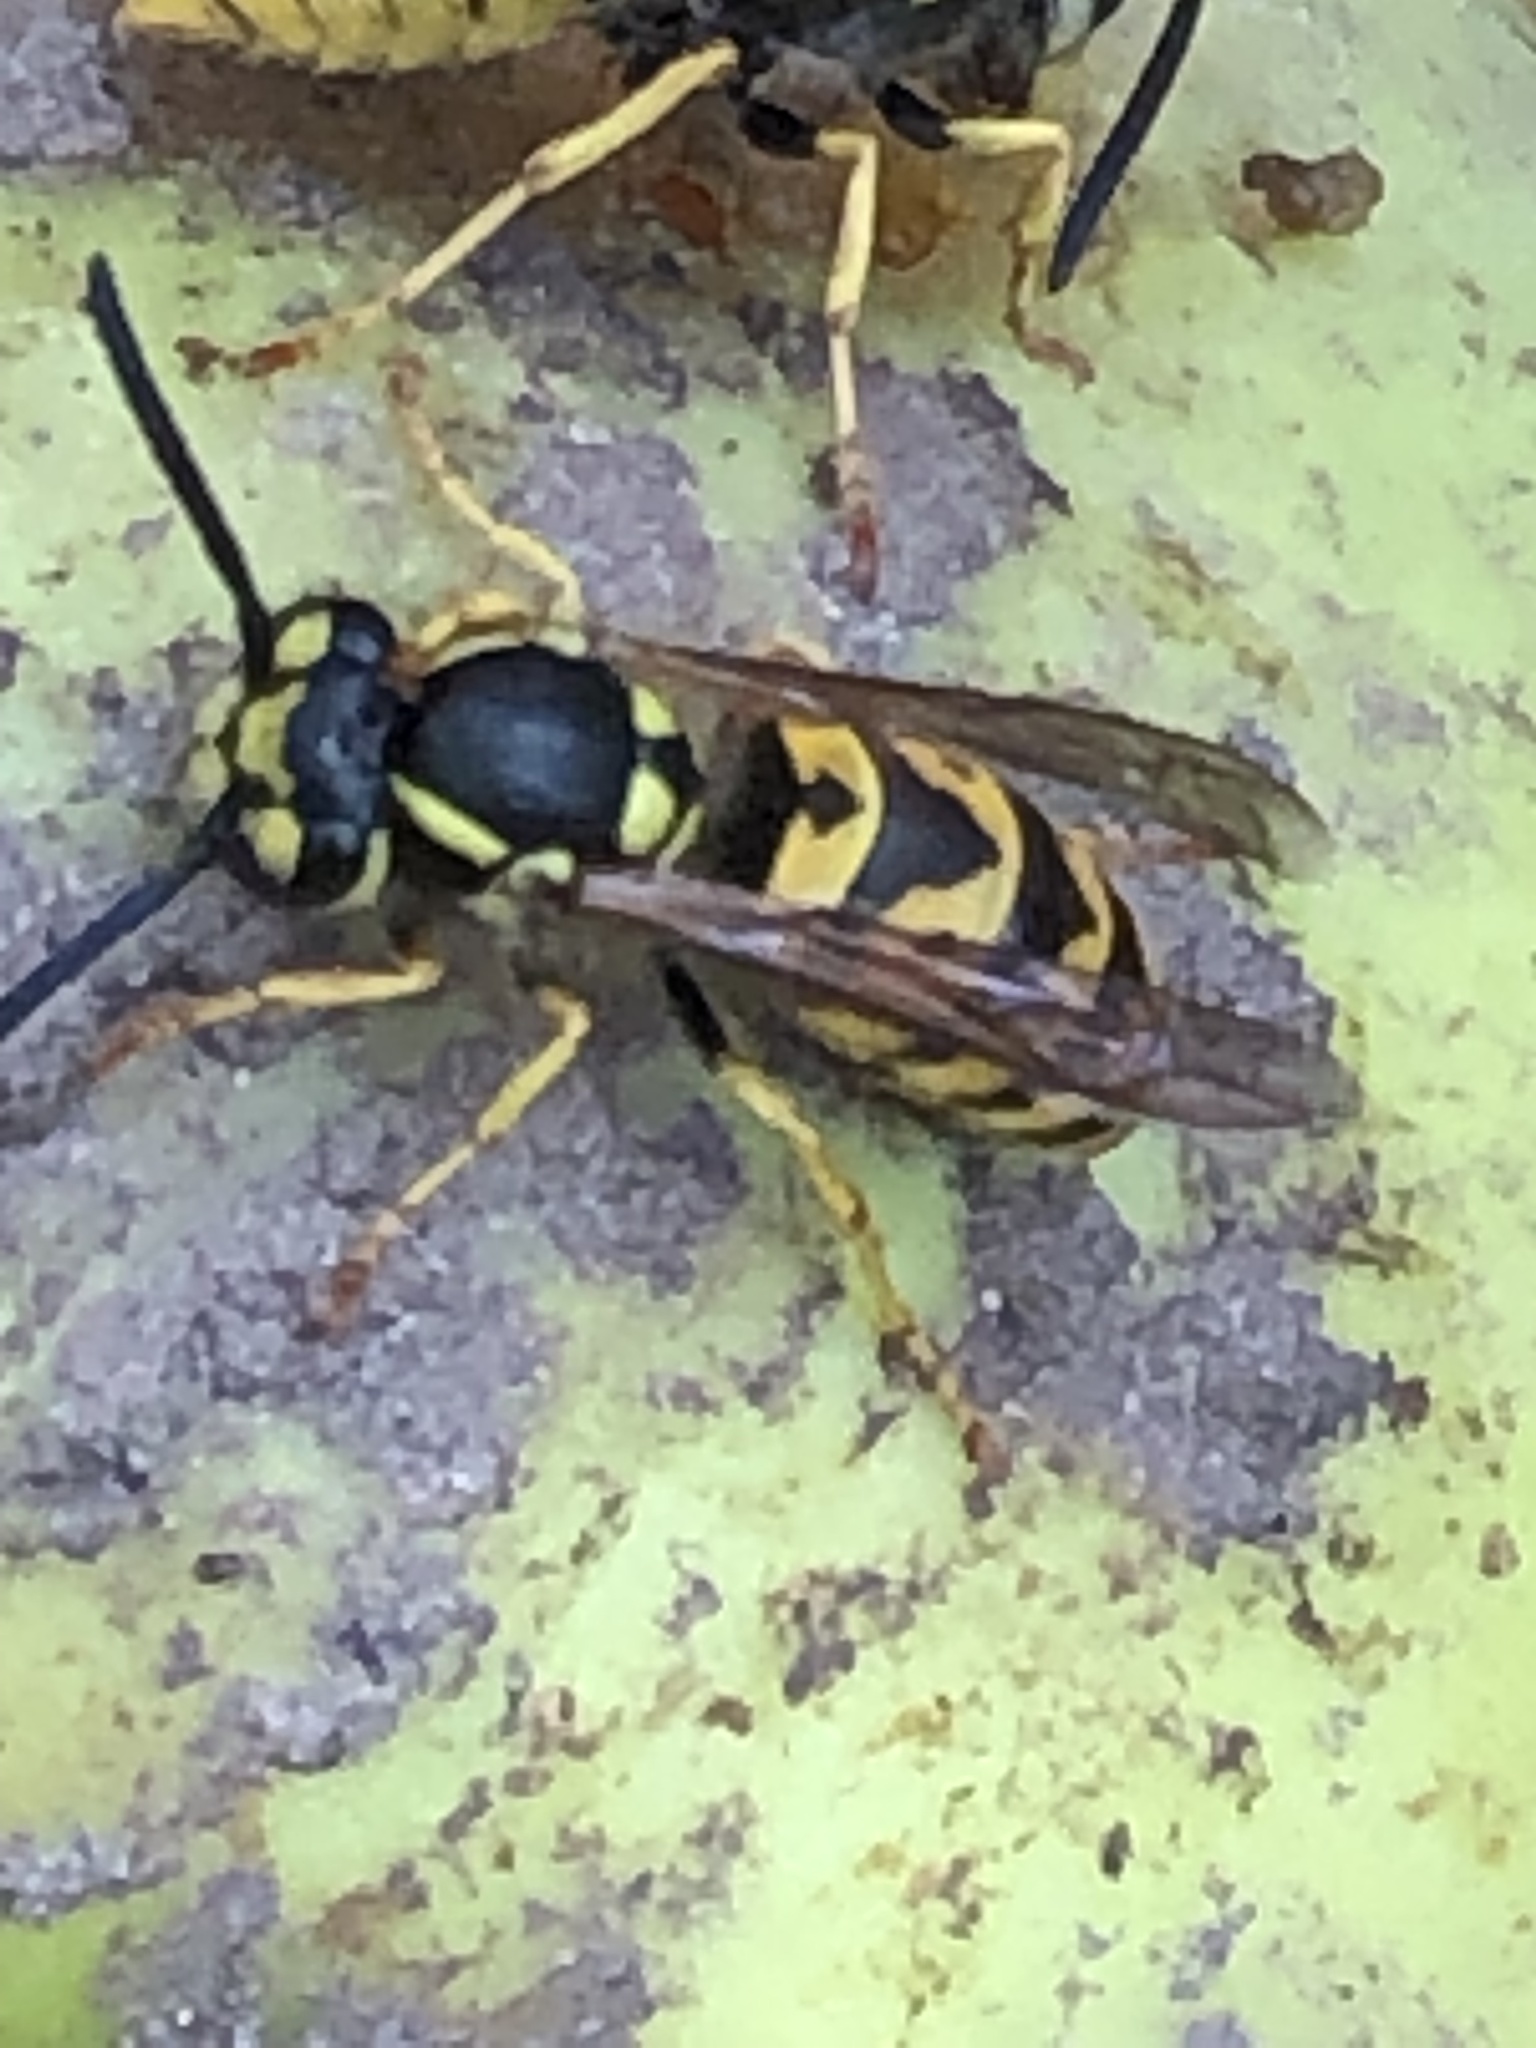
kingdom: Animalia
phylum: Arthropoda
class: Insecta
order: Hymenoptera
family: Vespidae
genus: Vespula
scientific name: Vespula germanica
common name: German wasp
